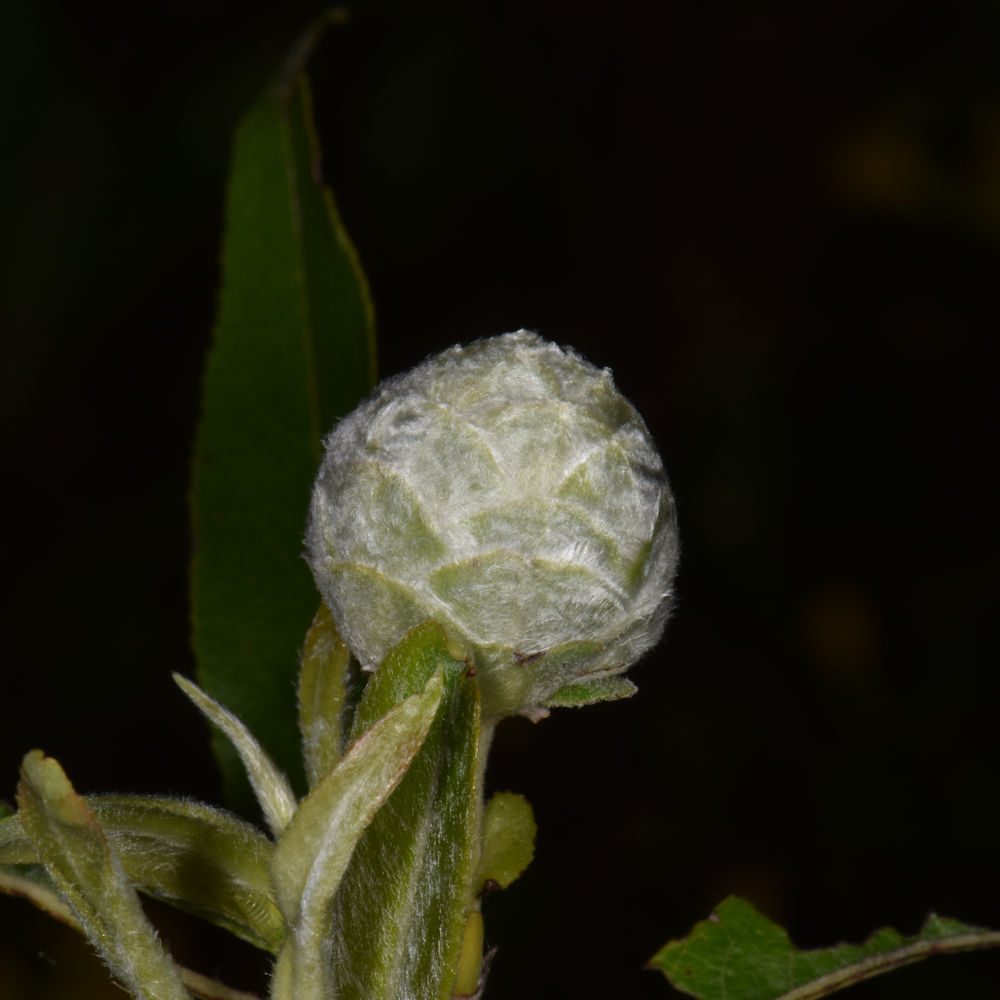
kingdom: Animalia
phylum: Arthropoda
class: Insecta
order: Diptera
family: Cecidomyiidae
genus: Rabdophaga
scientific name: Rabdophaga strobiloides
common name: Willow pinecone gall midge
